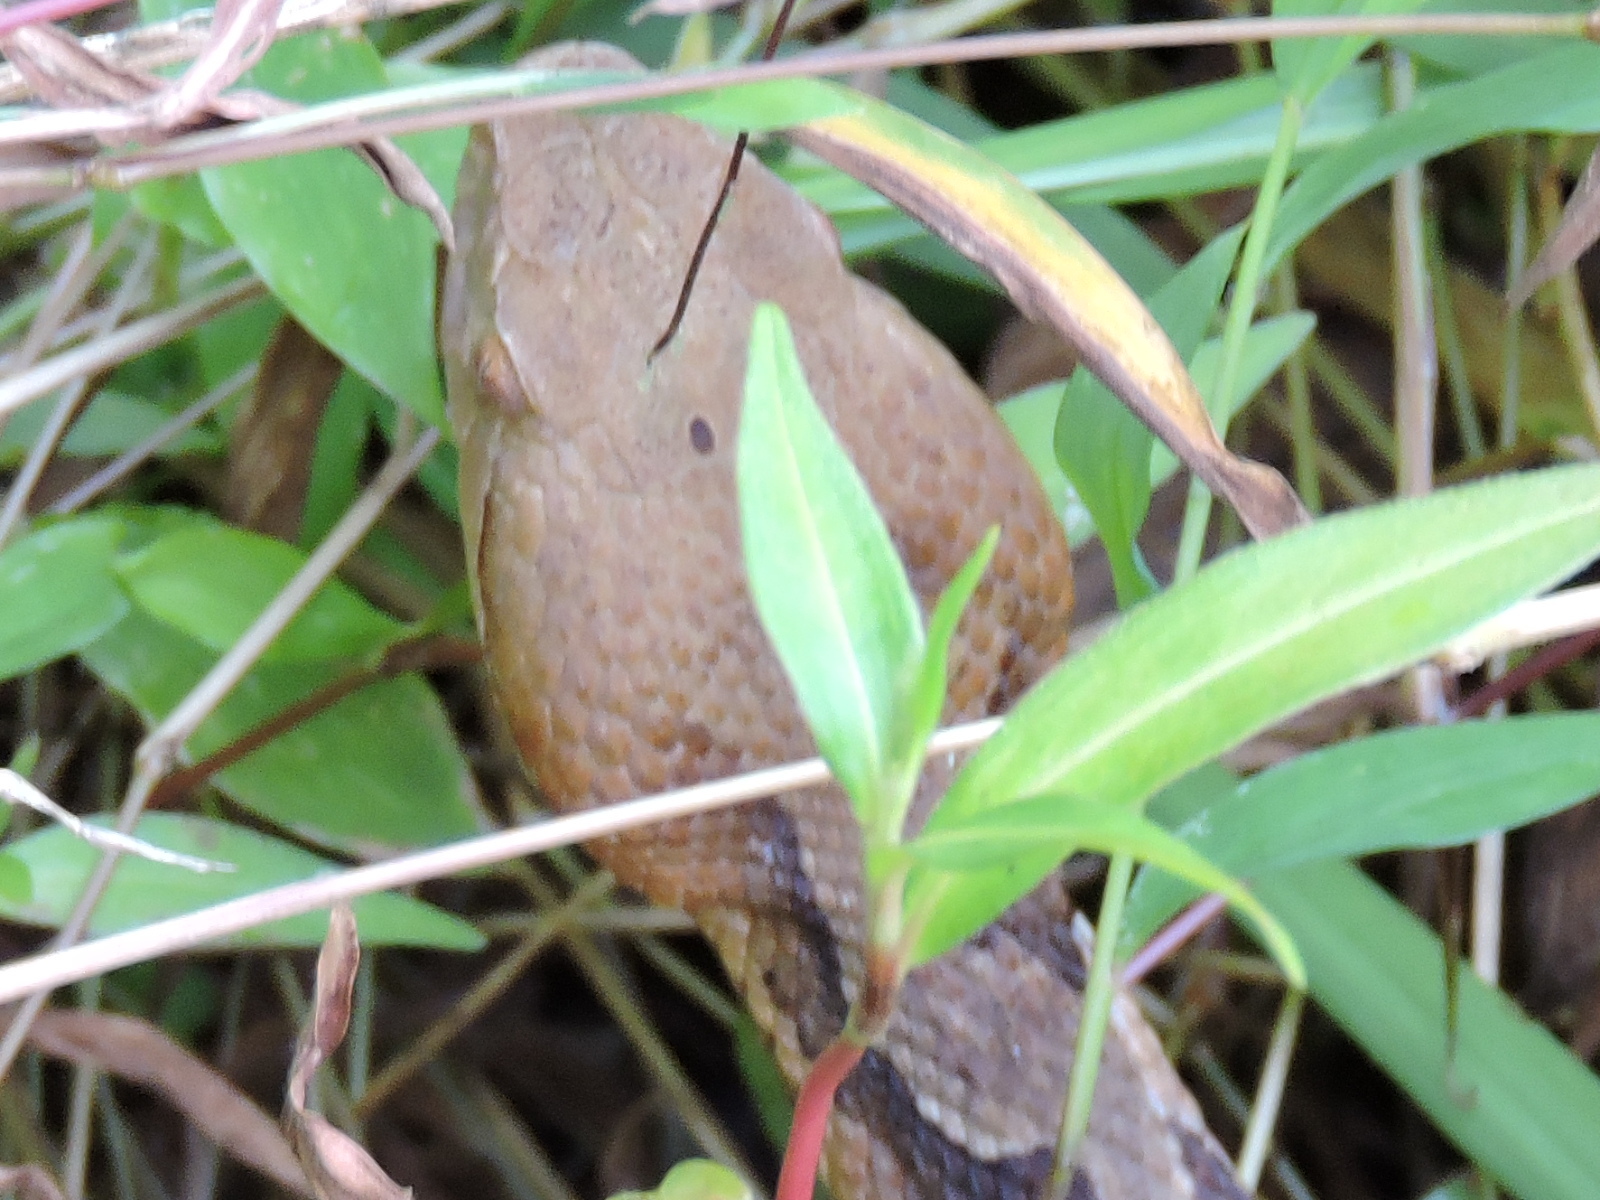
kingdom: Animalia
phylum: Chordata
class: Squamata
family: Viperidae
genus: Agkistrodon
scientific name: Agkistrodon contortrix
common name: Northern copperhead
